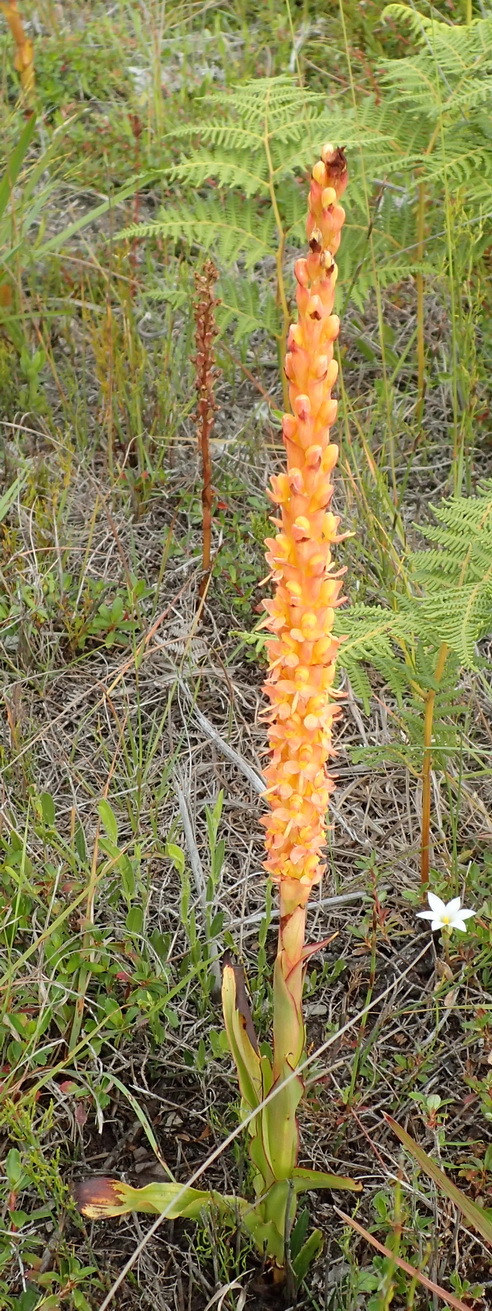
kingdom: Plantae
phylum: Tracheophyta
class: Liliopsida
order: Asparagales
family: Orchidaceae
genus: Disa
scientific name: Disa chrysostachya
